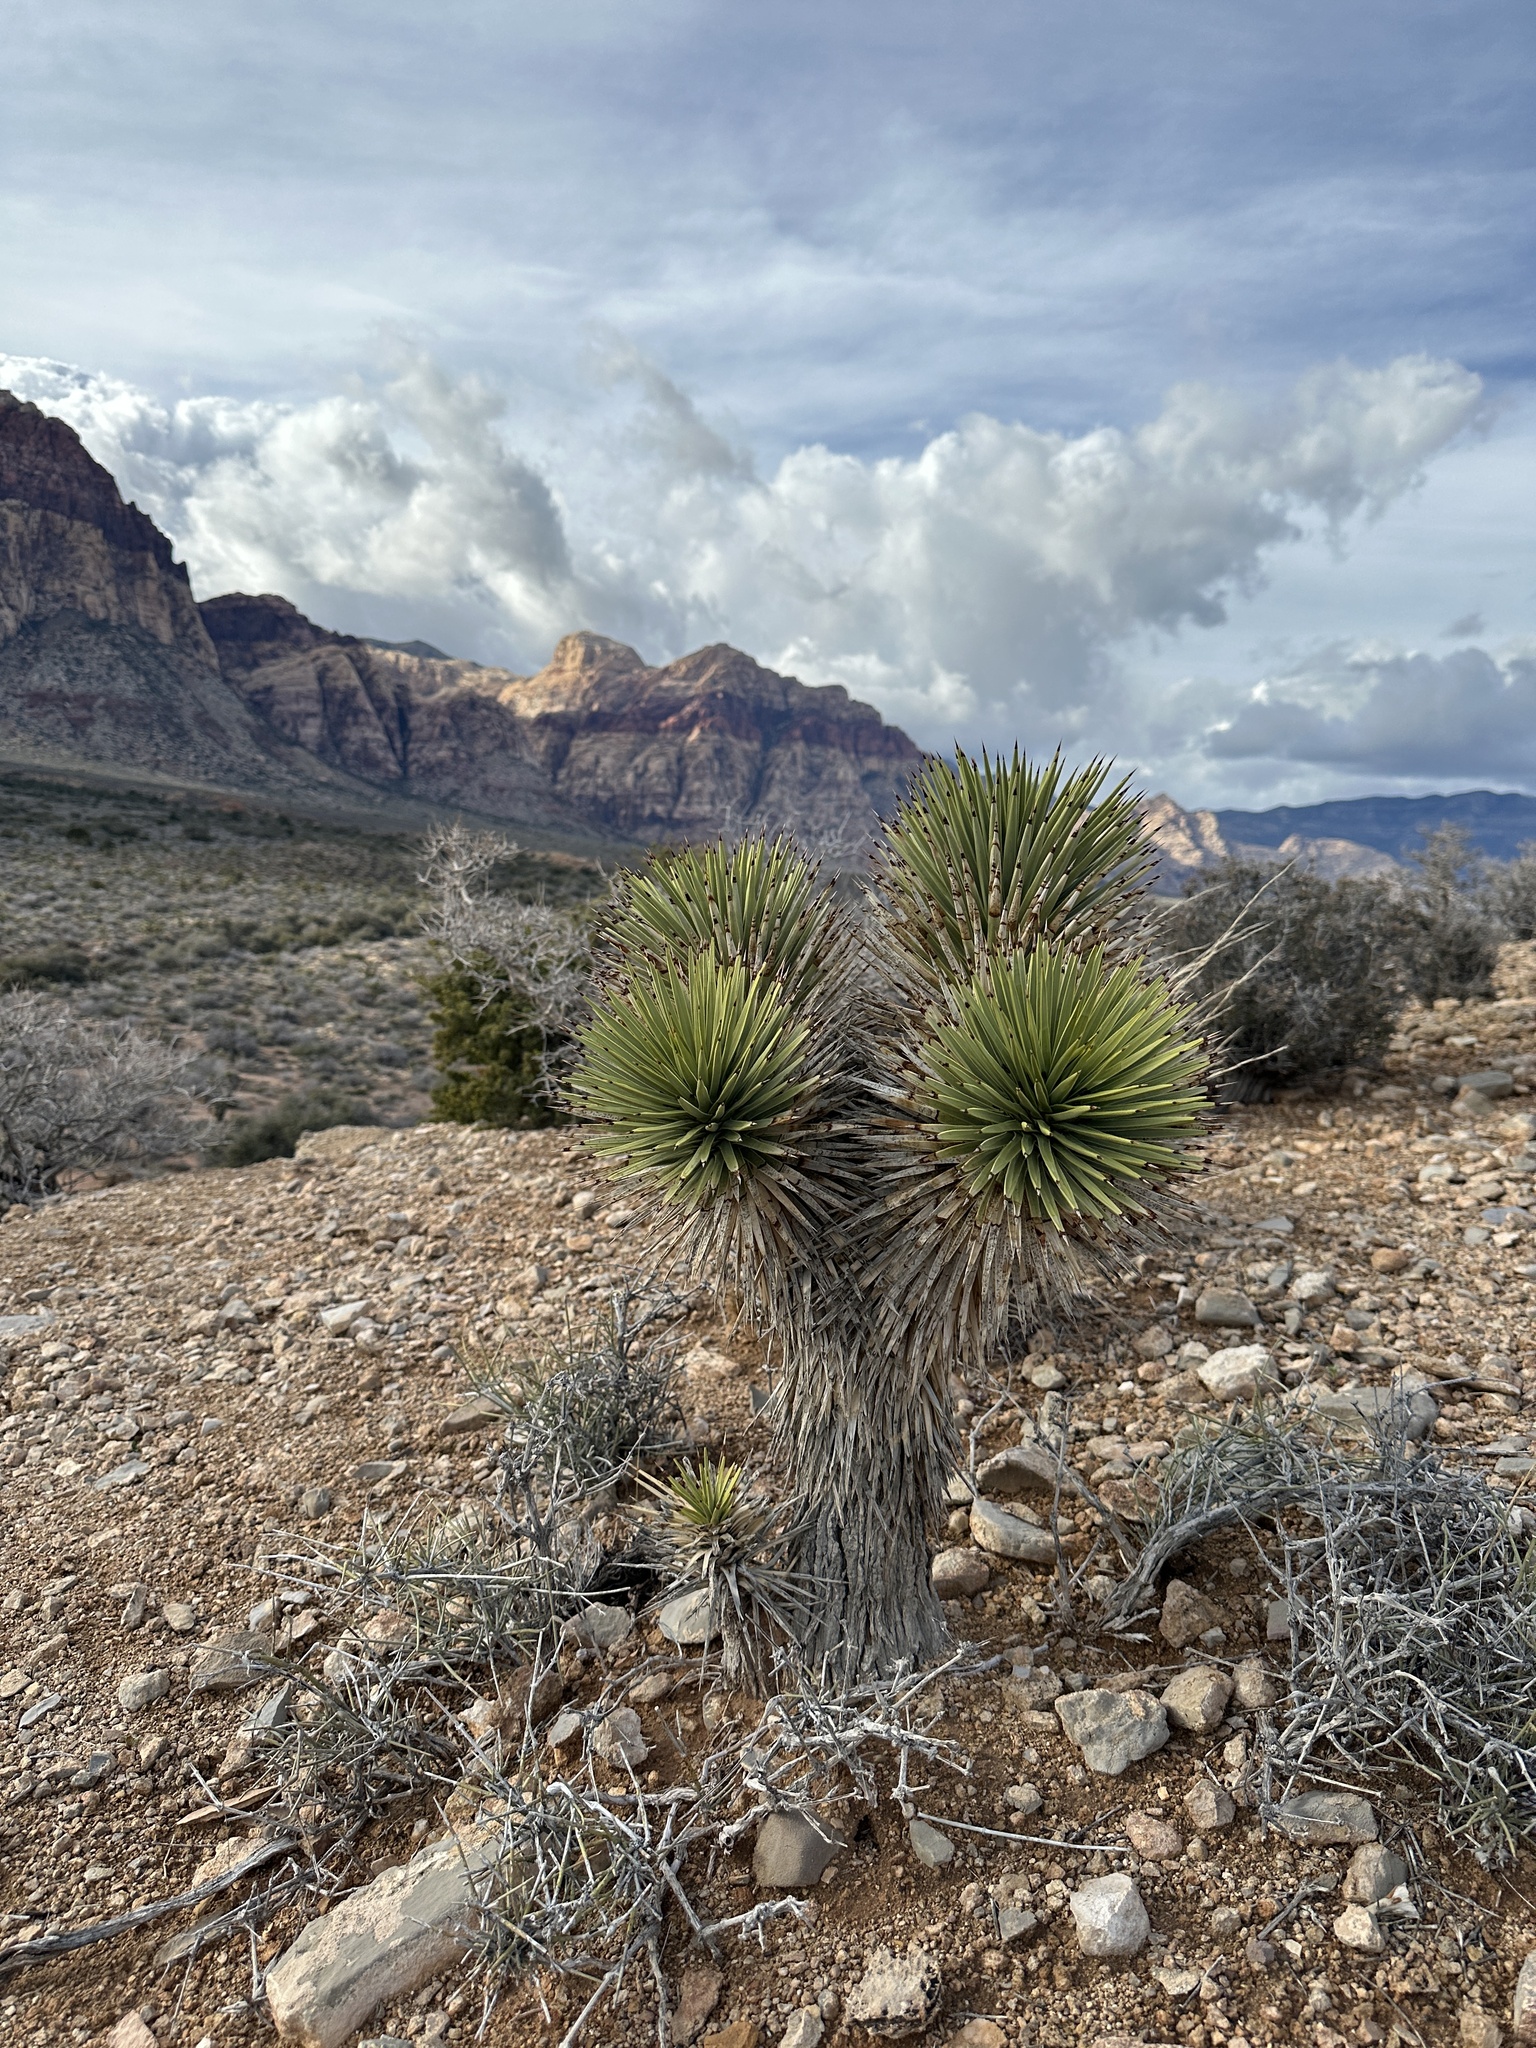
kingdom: Plantae
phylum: Tracheophyta
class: Liliopsida
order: Asparagales
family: Asparagaceae
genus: Yucca
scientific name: Yucca brevifolia
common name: Joshua tree
